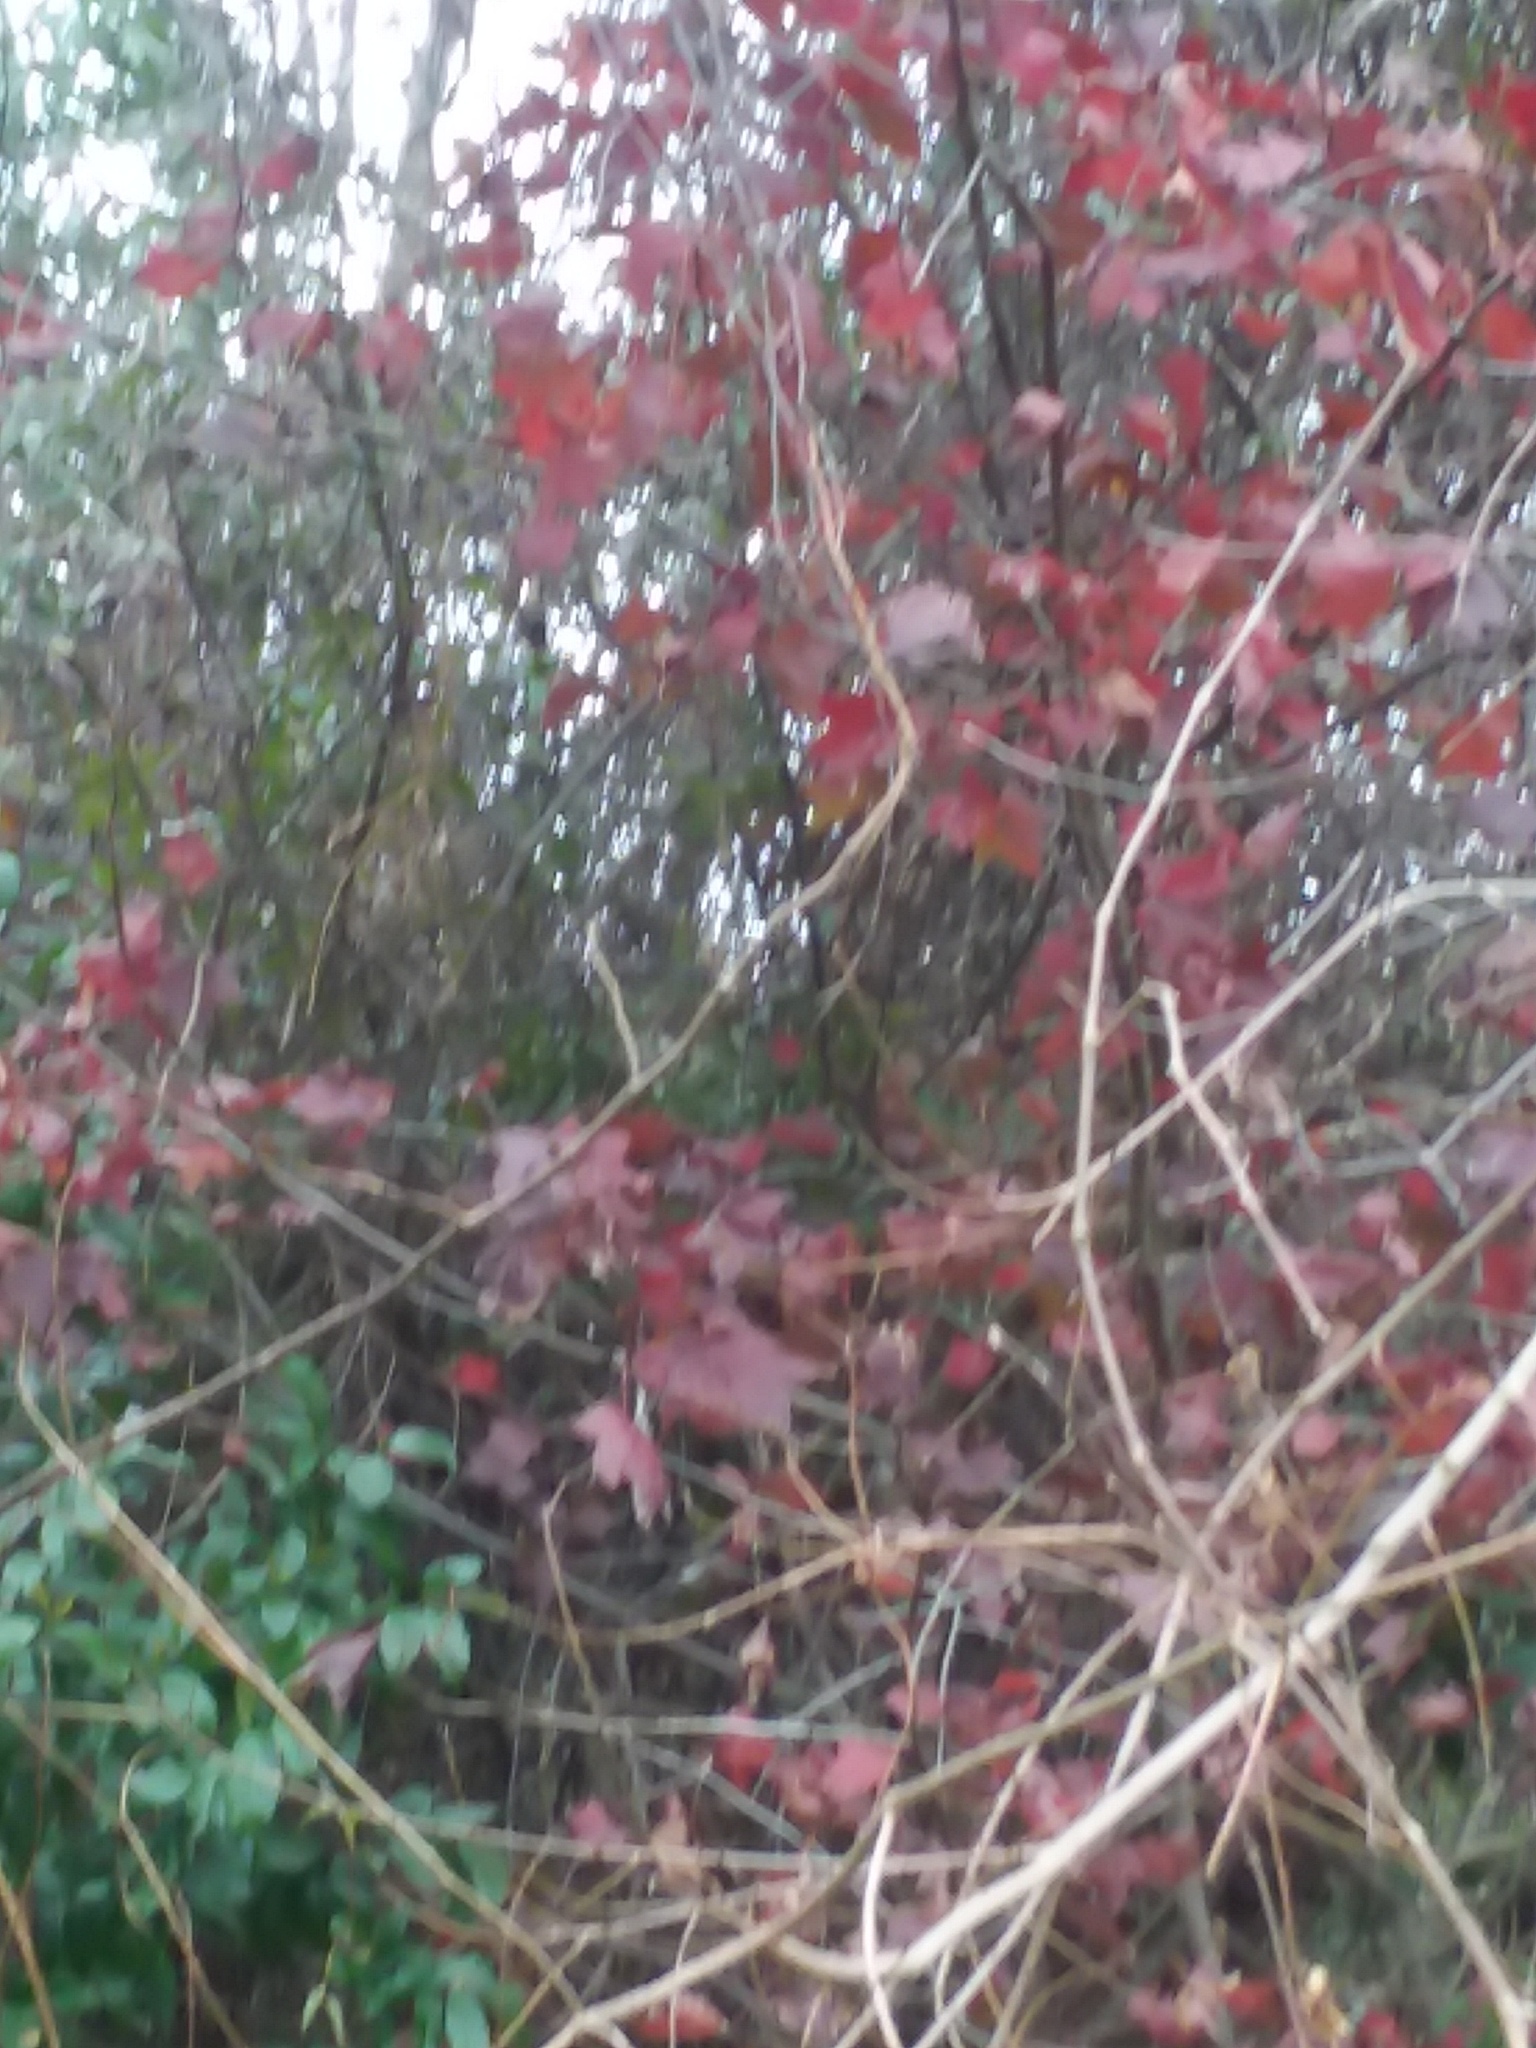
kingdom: Plantae
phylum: Tracheophyta
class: Magnoliopsida
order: Saxifragales
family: Altingiaceae
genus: Liquidambar
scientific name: Liquidambar styraciflua
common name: Sweet gum
